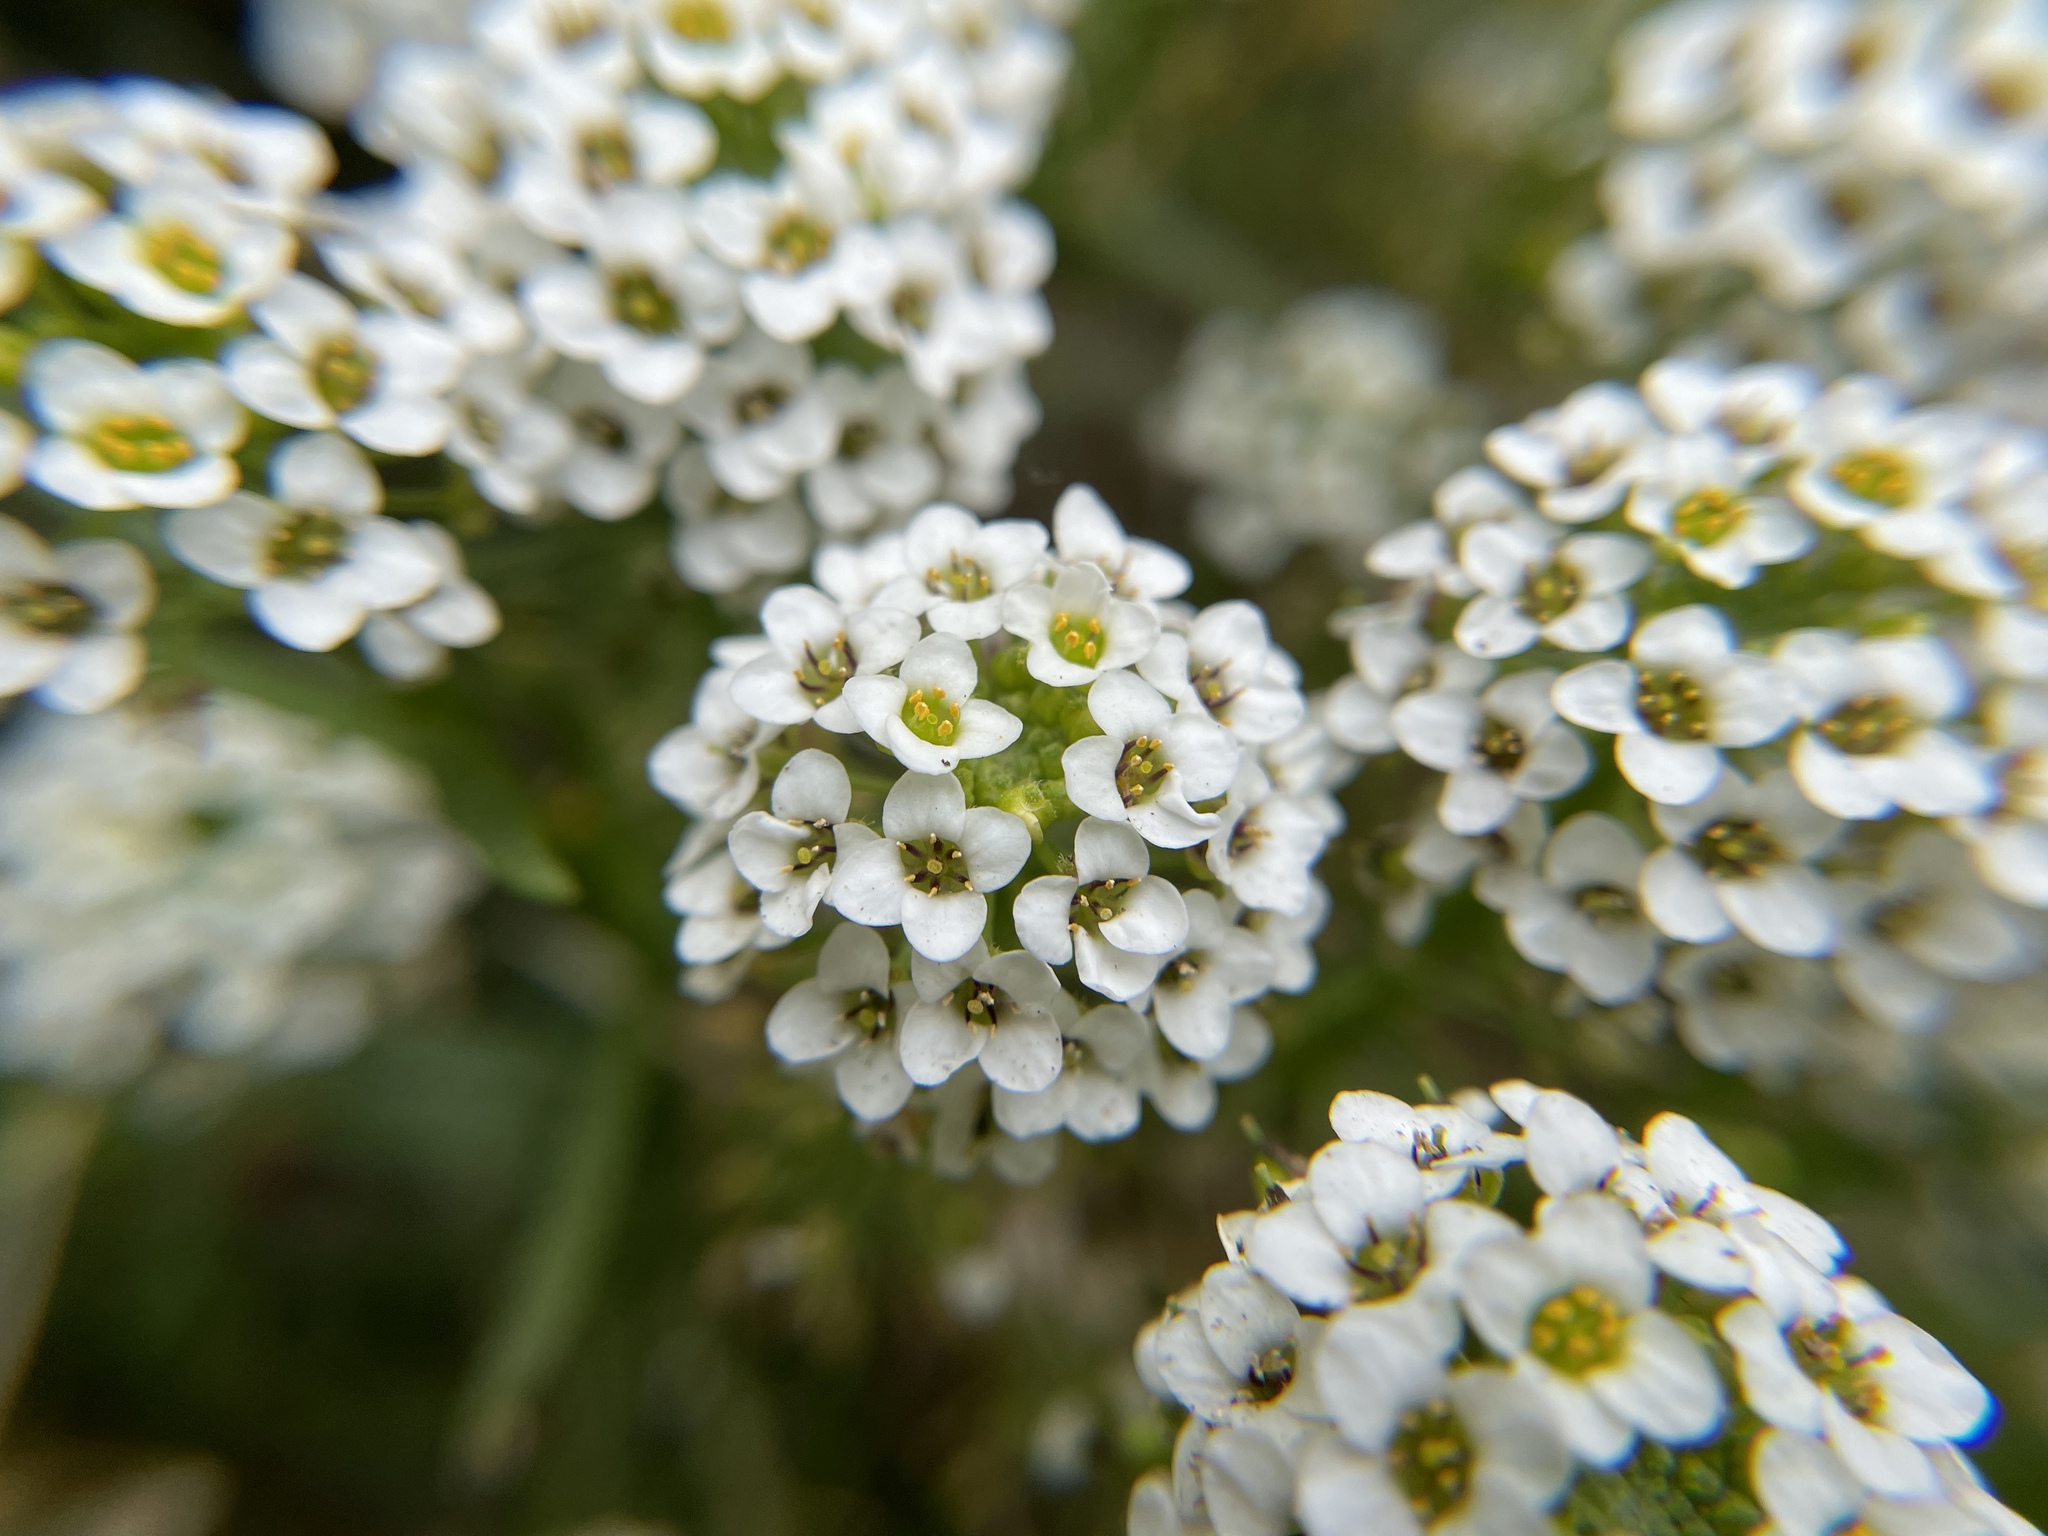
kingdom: Plantae
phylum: Tracheophyta
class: Magnoliopsida
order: Brassicales
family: Brassicaceae
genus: Lobularia
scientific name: Lobularia maritima
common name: Sweet alison
